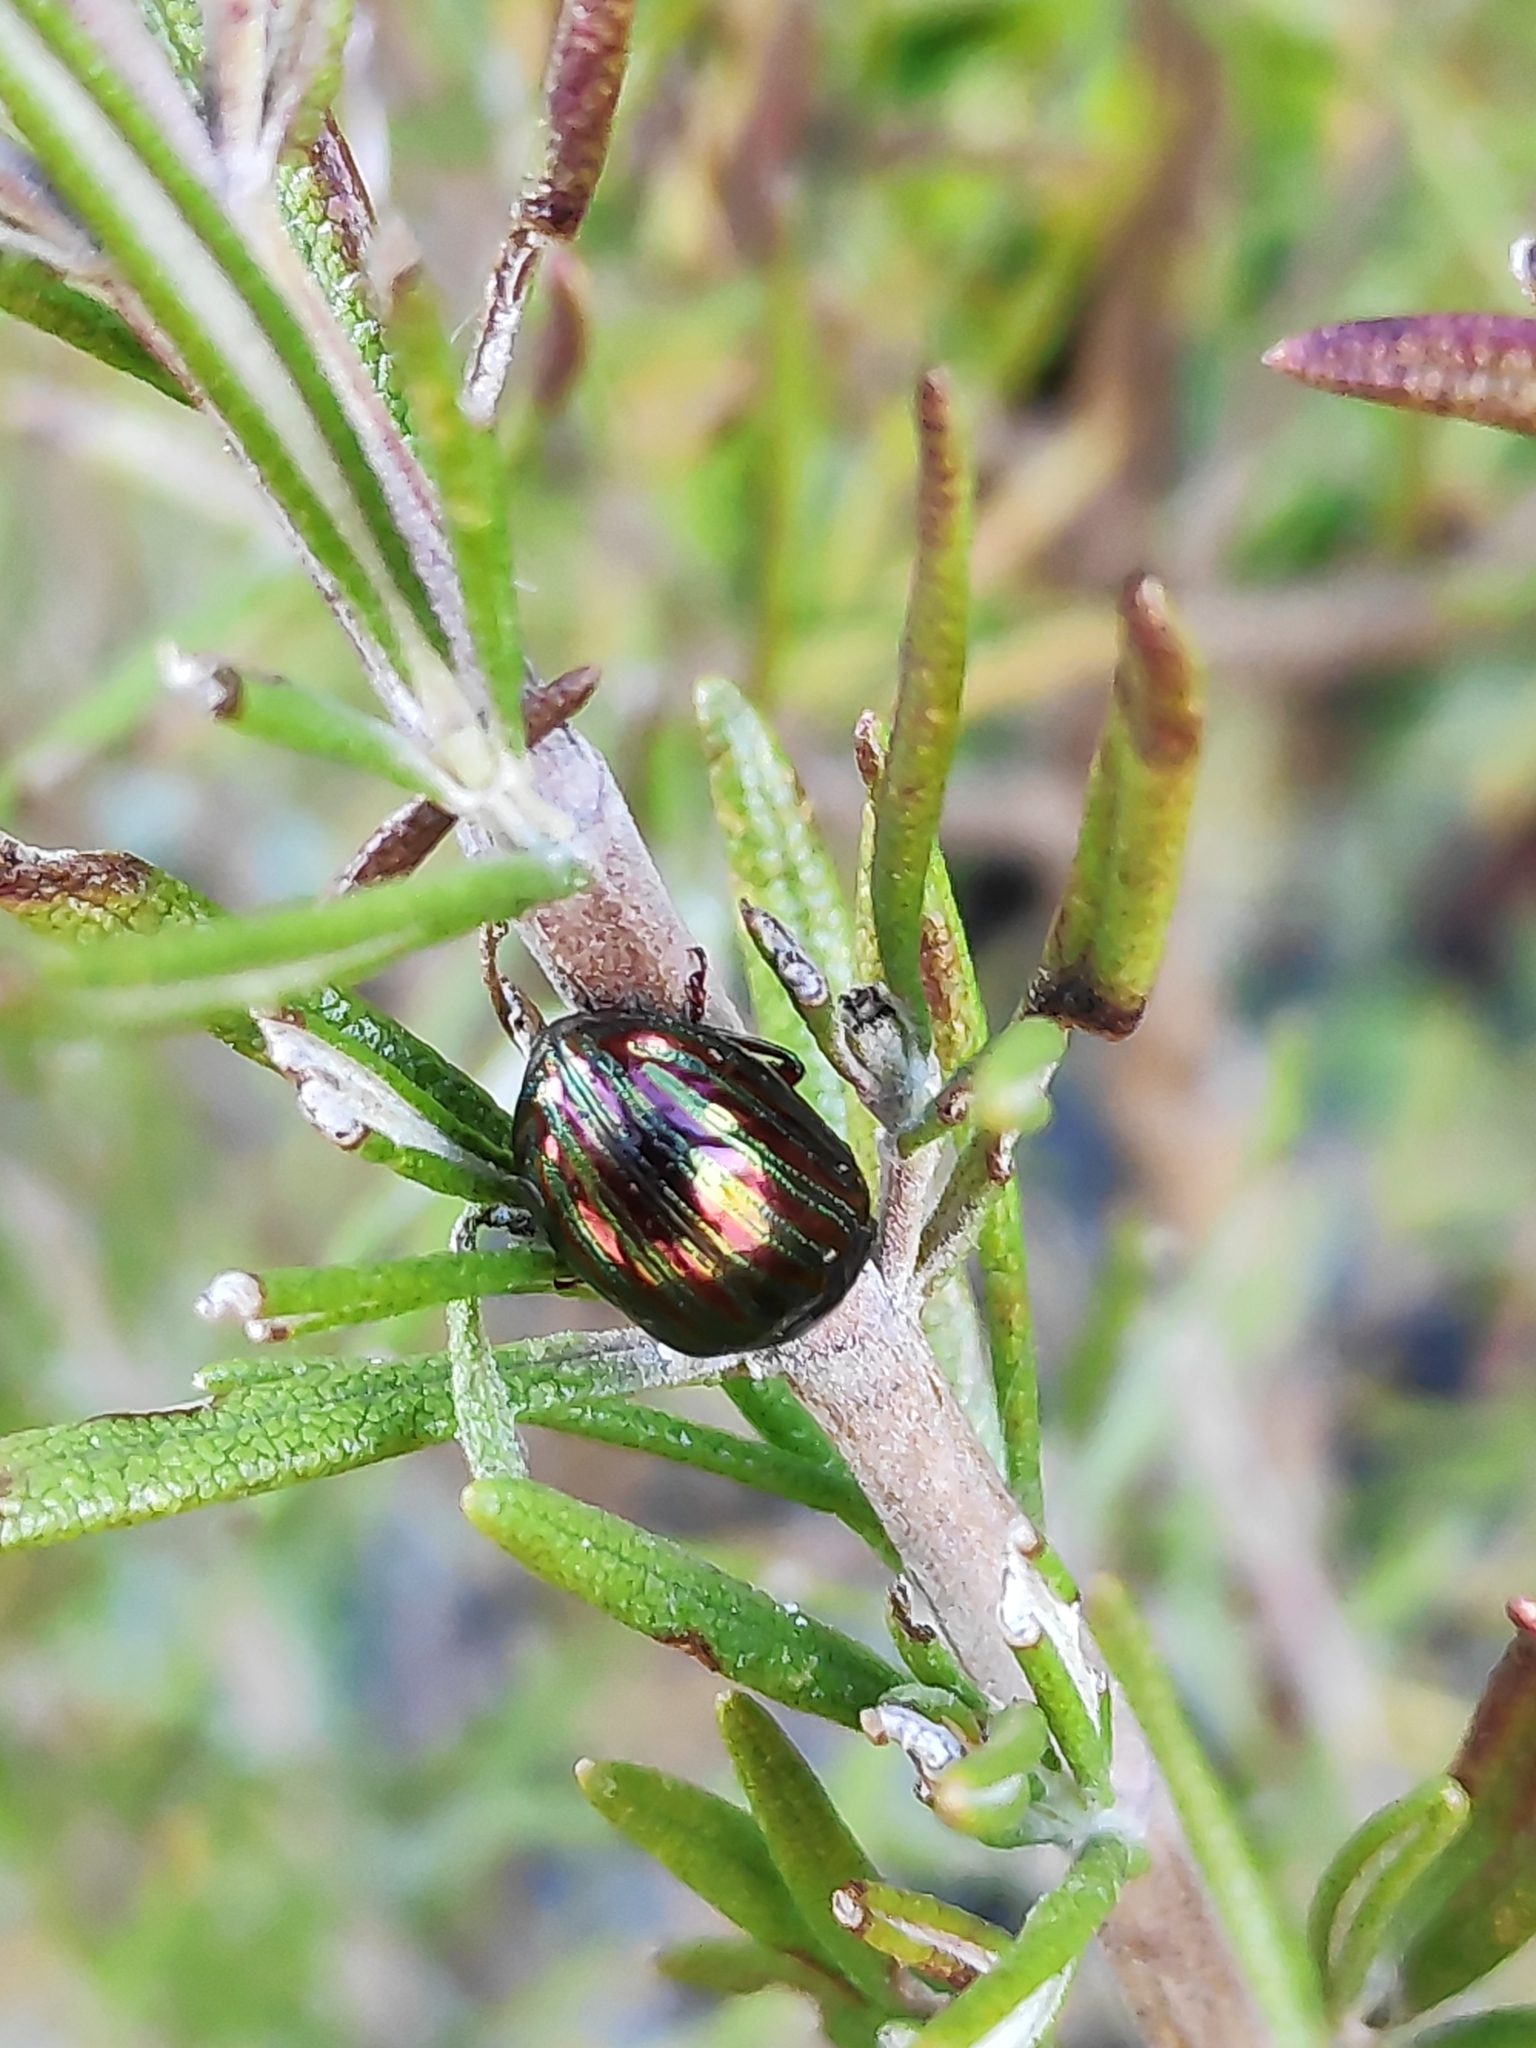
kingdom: Animalia
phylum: Arthropoda
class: Insecta
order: Coleoptera
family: Chrysomelidae
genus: Chrysolina
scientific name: Chrysolina americana
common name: Rosemary beetle
